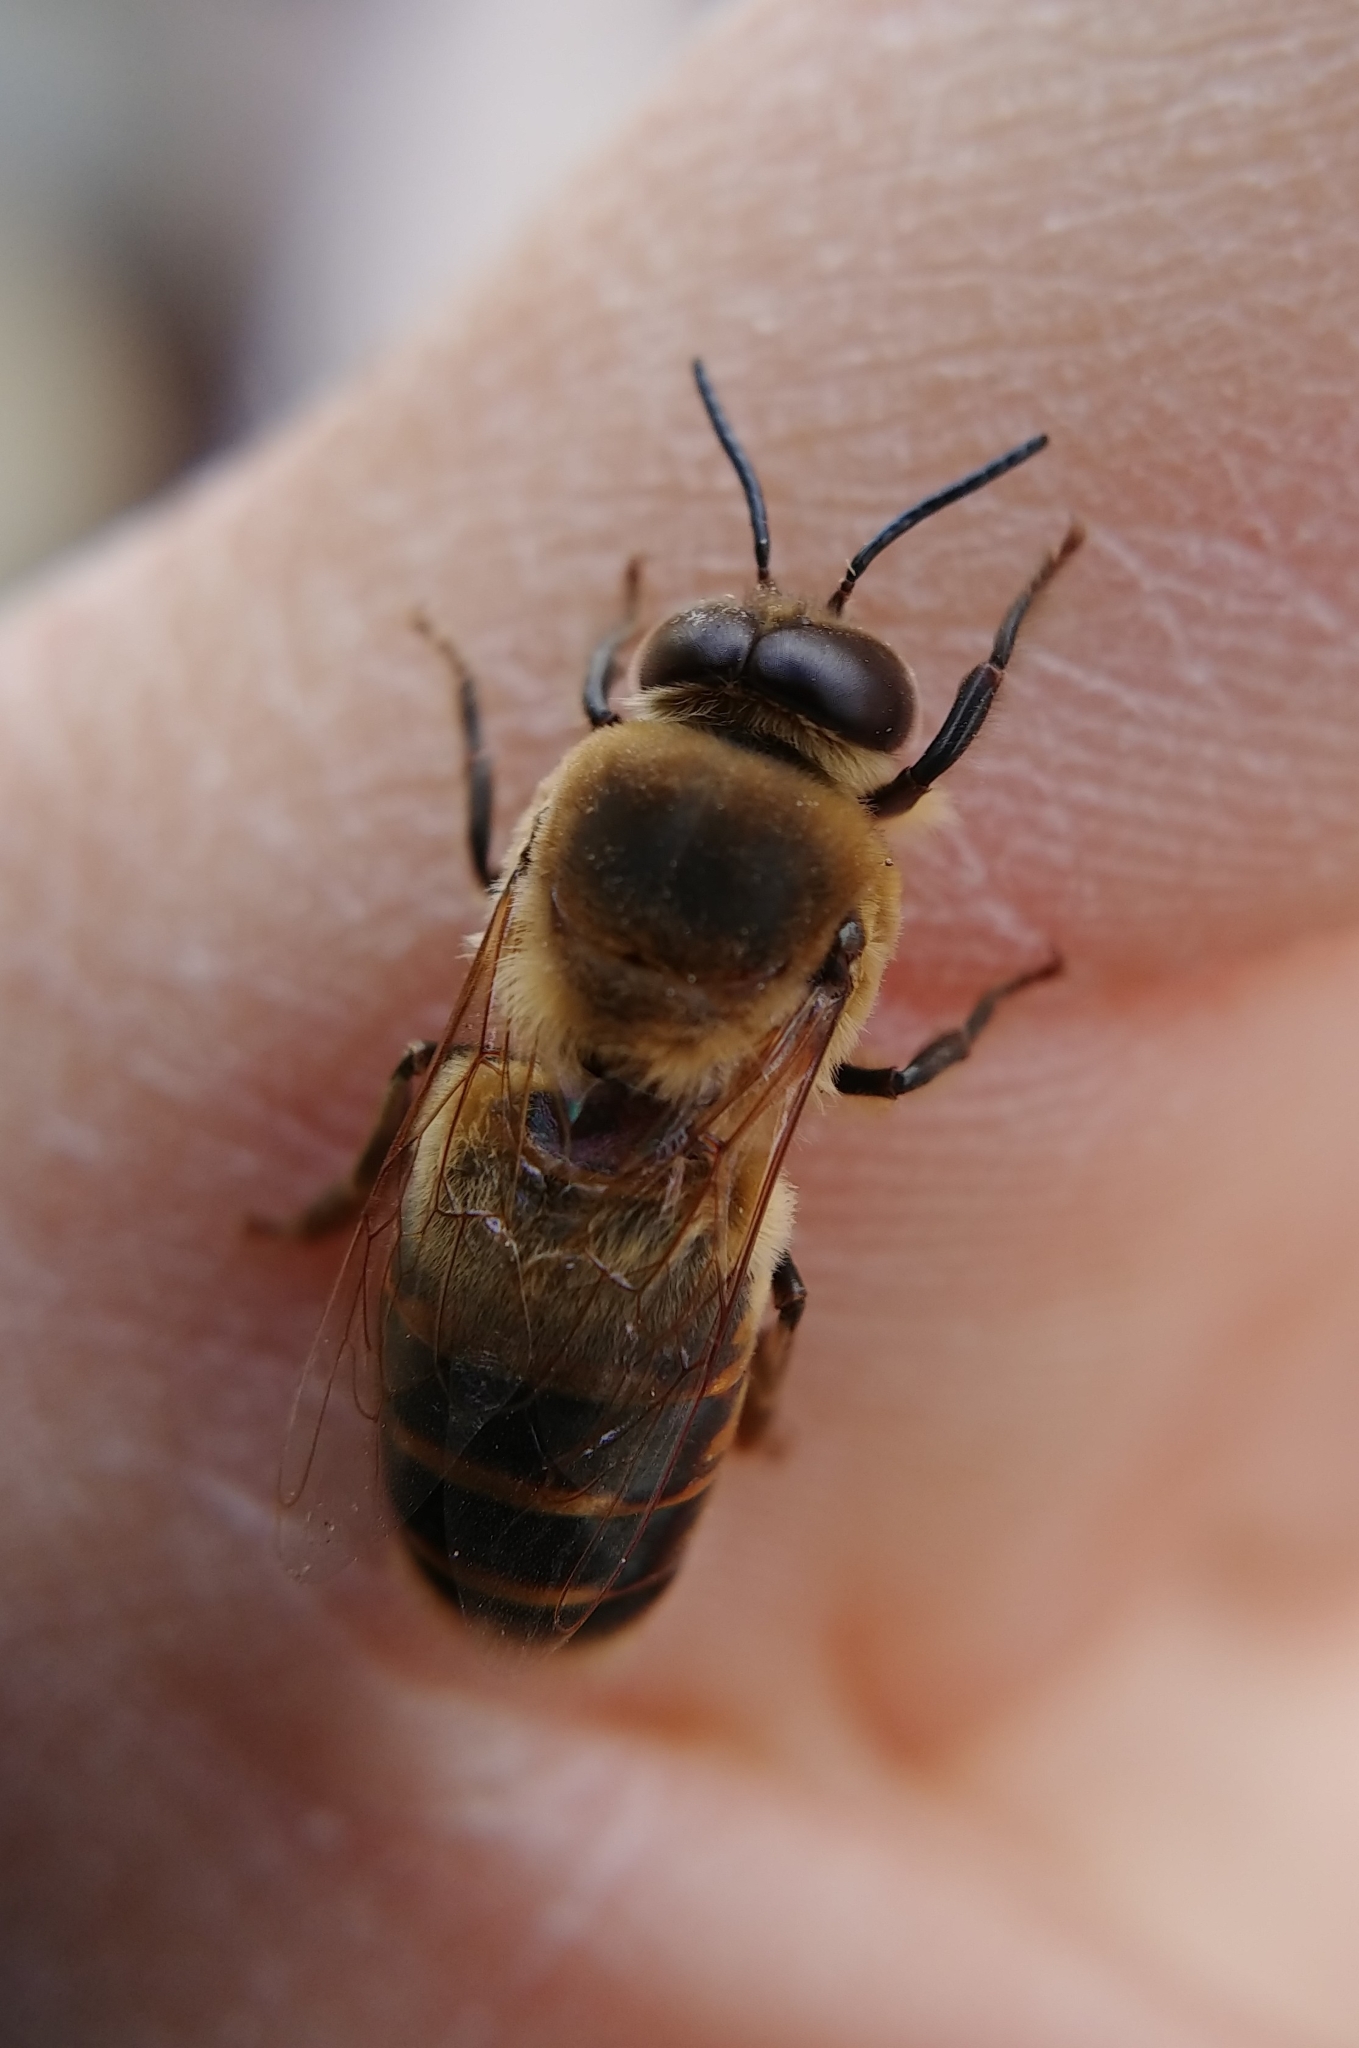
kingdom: Animalia
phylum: Arthropoda
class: Insecta
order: Hymenoptera
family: Apidae
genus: Apis
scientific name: Apis mellifera
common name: Honey bee
